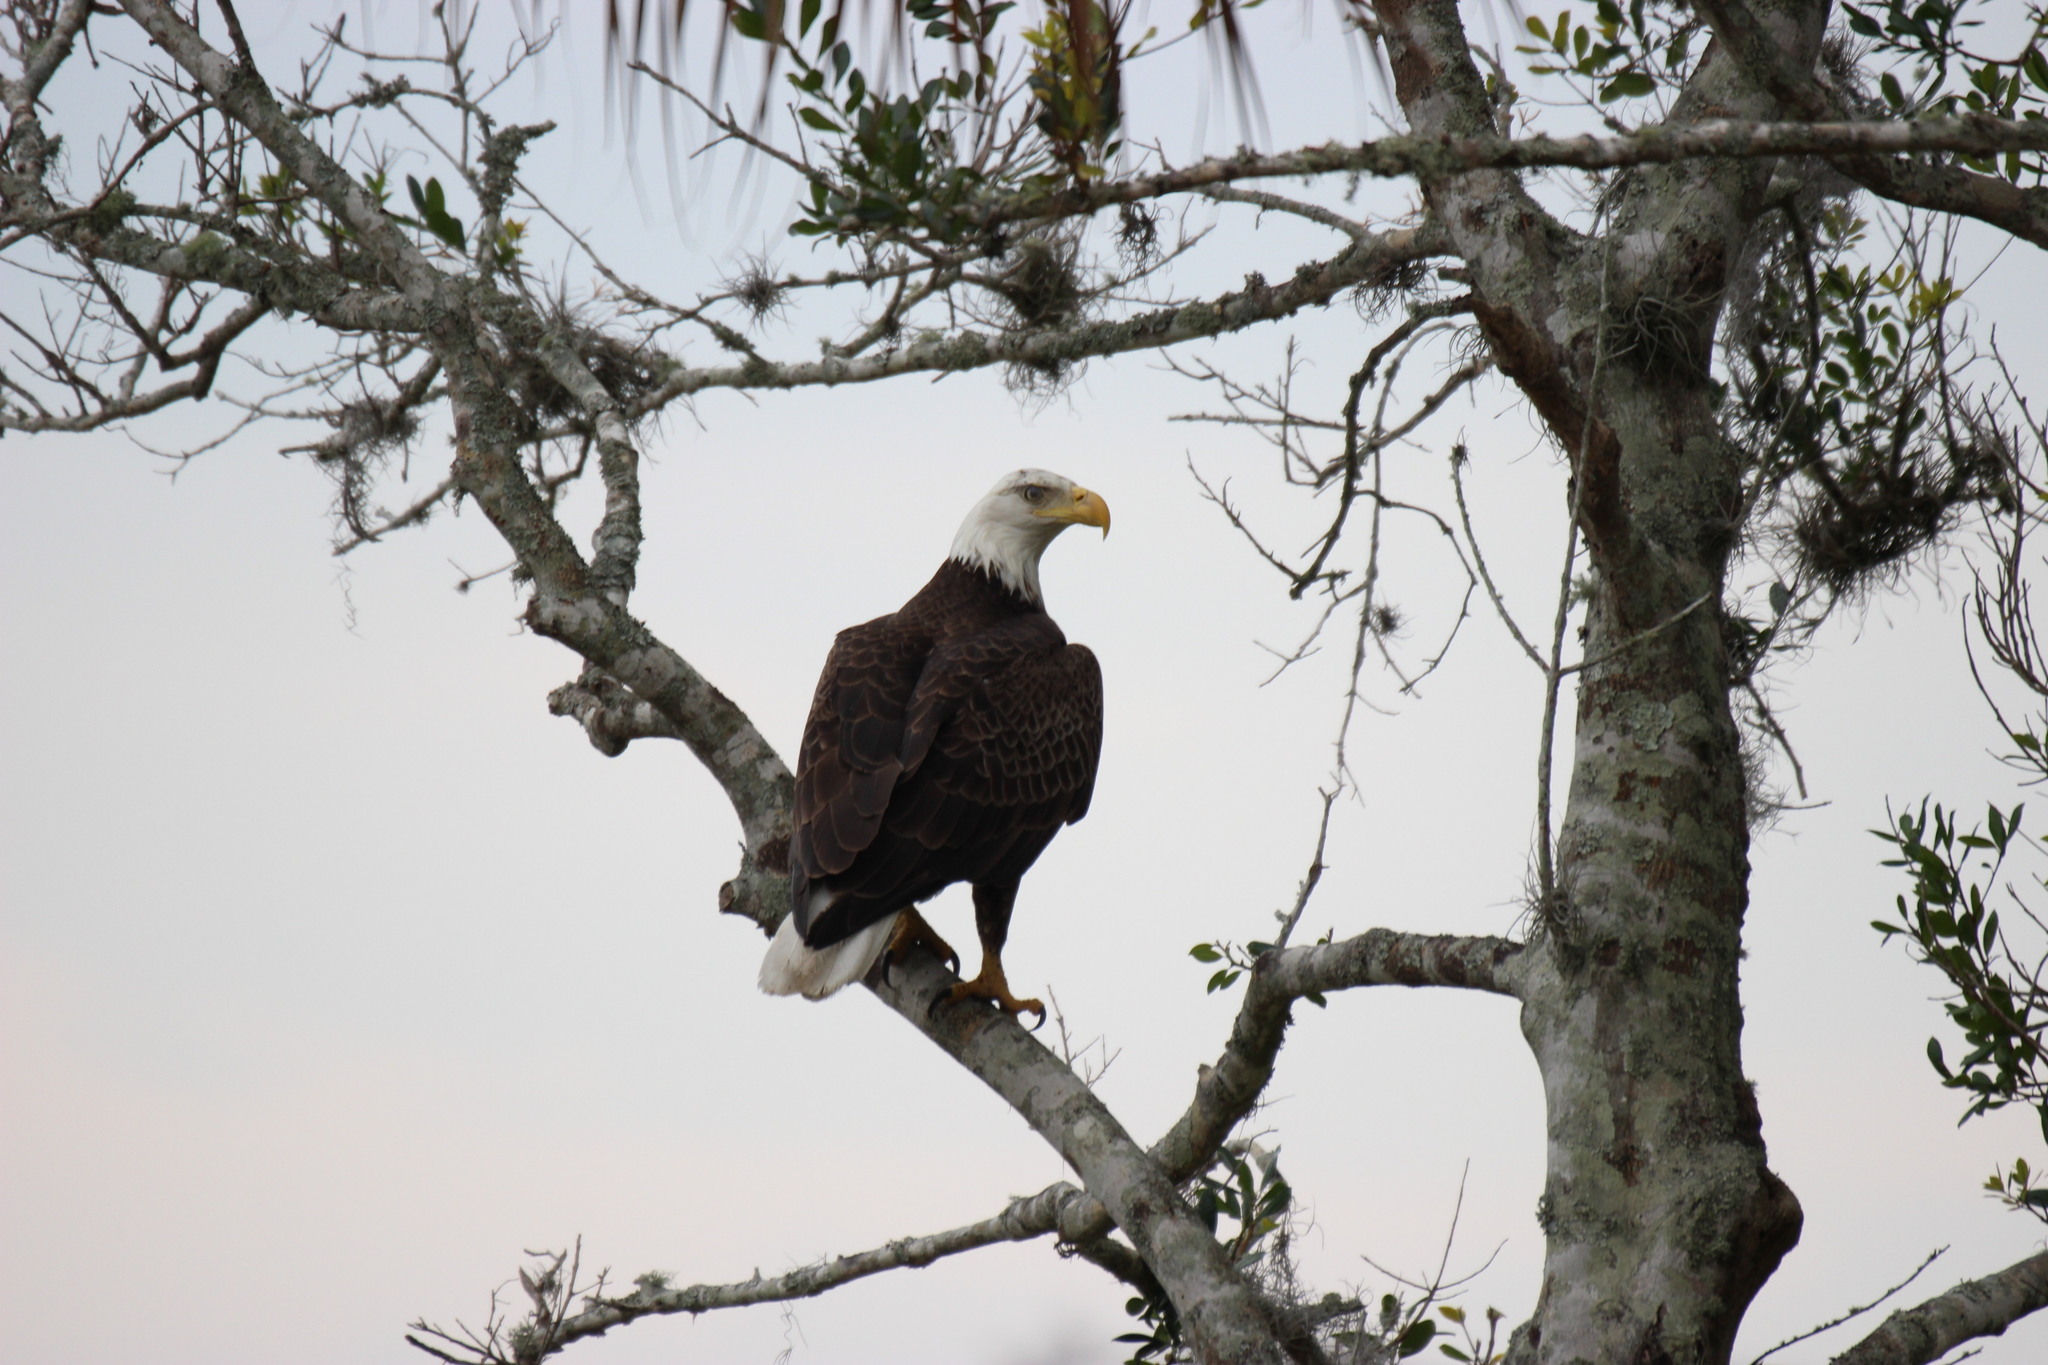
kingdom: Animalia
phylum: Chordata
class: Aves
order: Accipitriformes
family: Accipitridae
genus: Haliaeetus
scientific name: Haliaeetus leucocephalus
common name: Bald eagle
